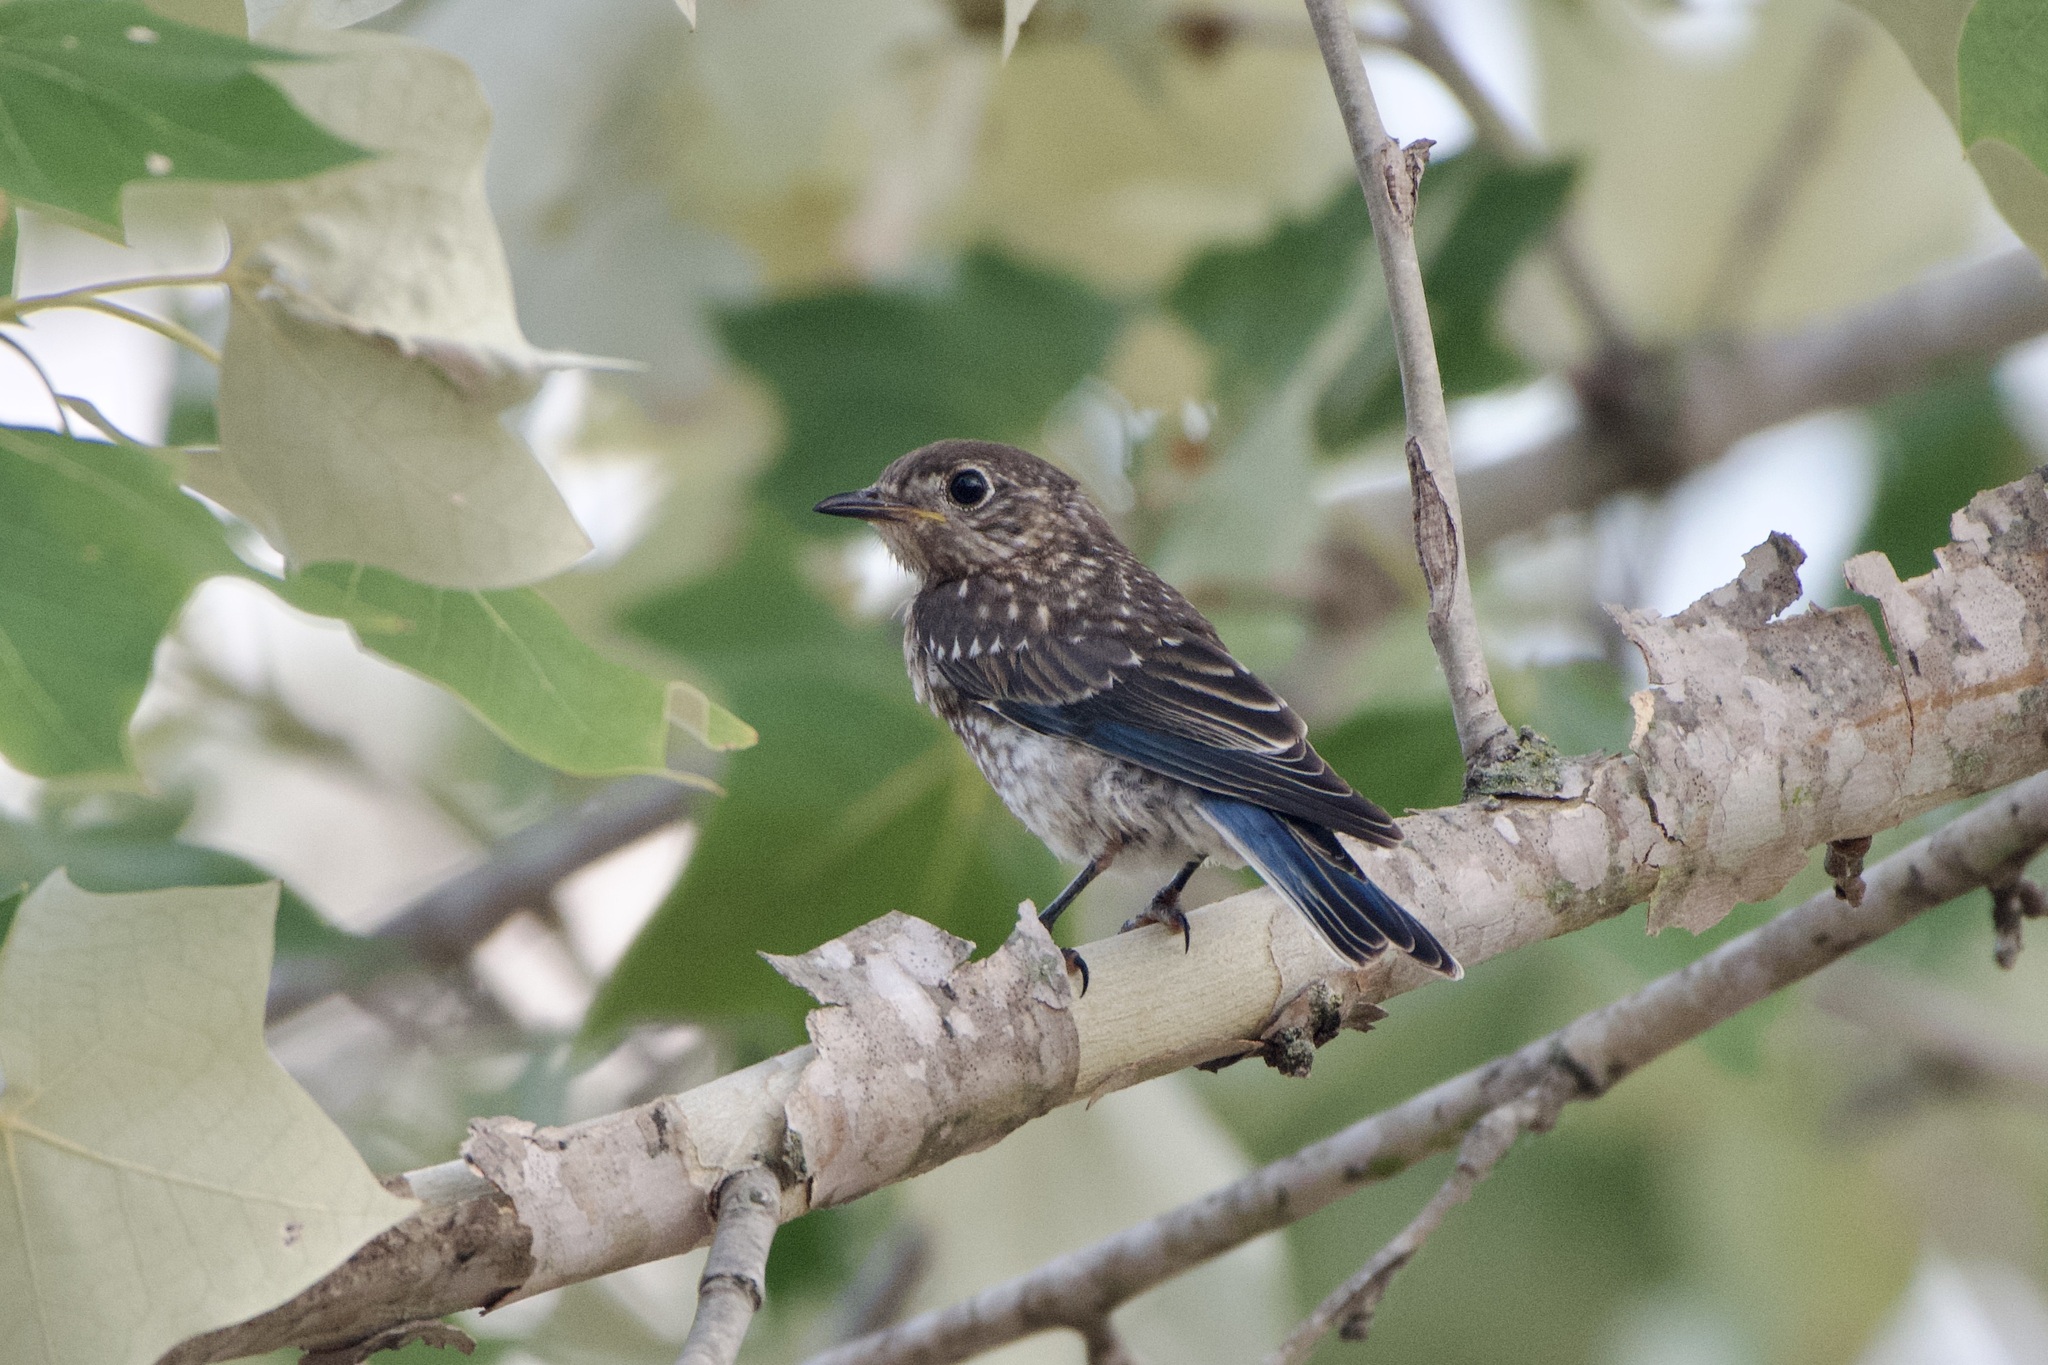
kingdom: Animalia
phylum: Chordata
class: Aves
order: Passeriformes
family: Turdidae
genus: Sialia
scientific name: Sialia sialis
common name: Eastern bluebird
